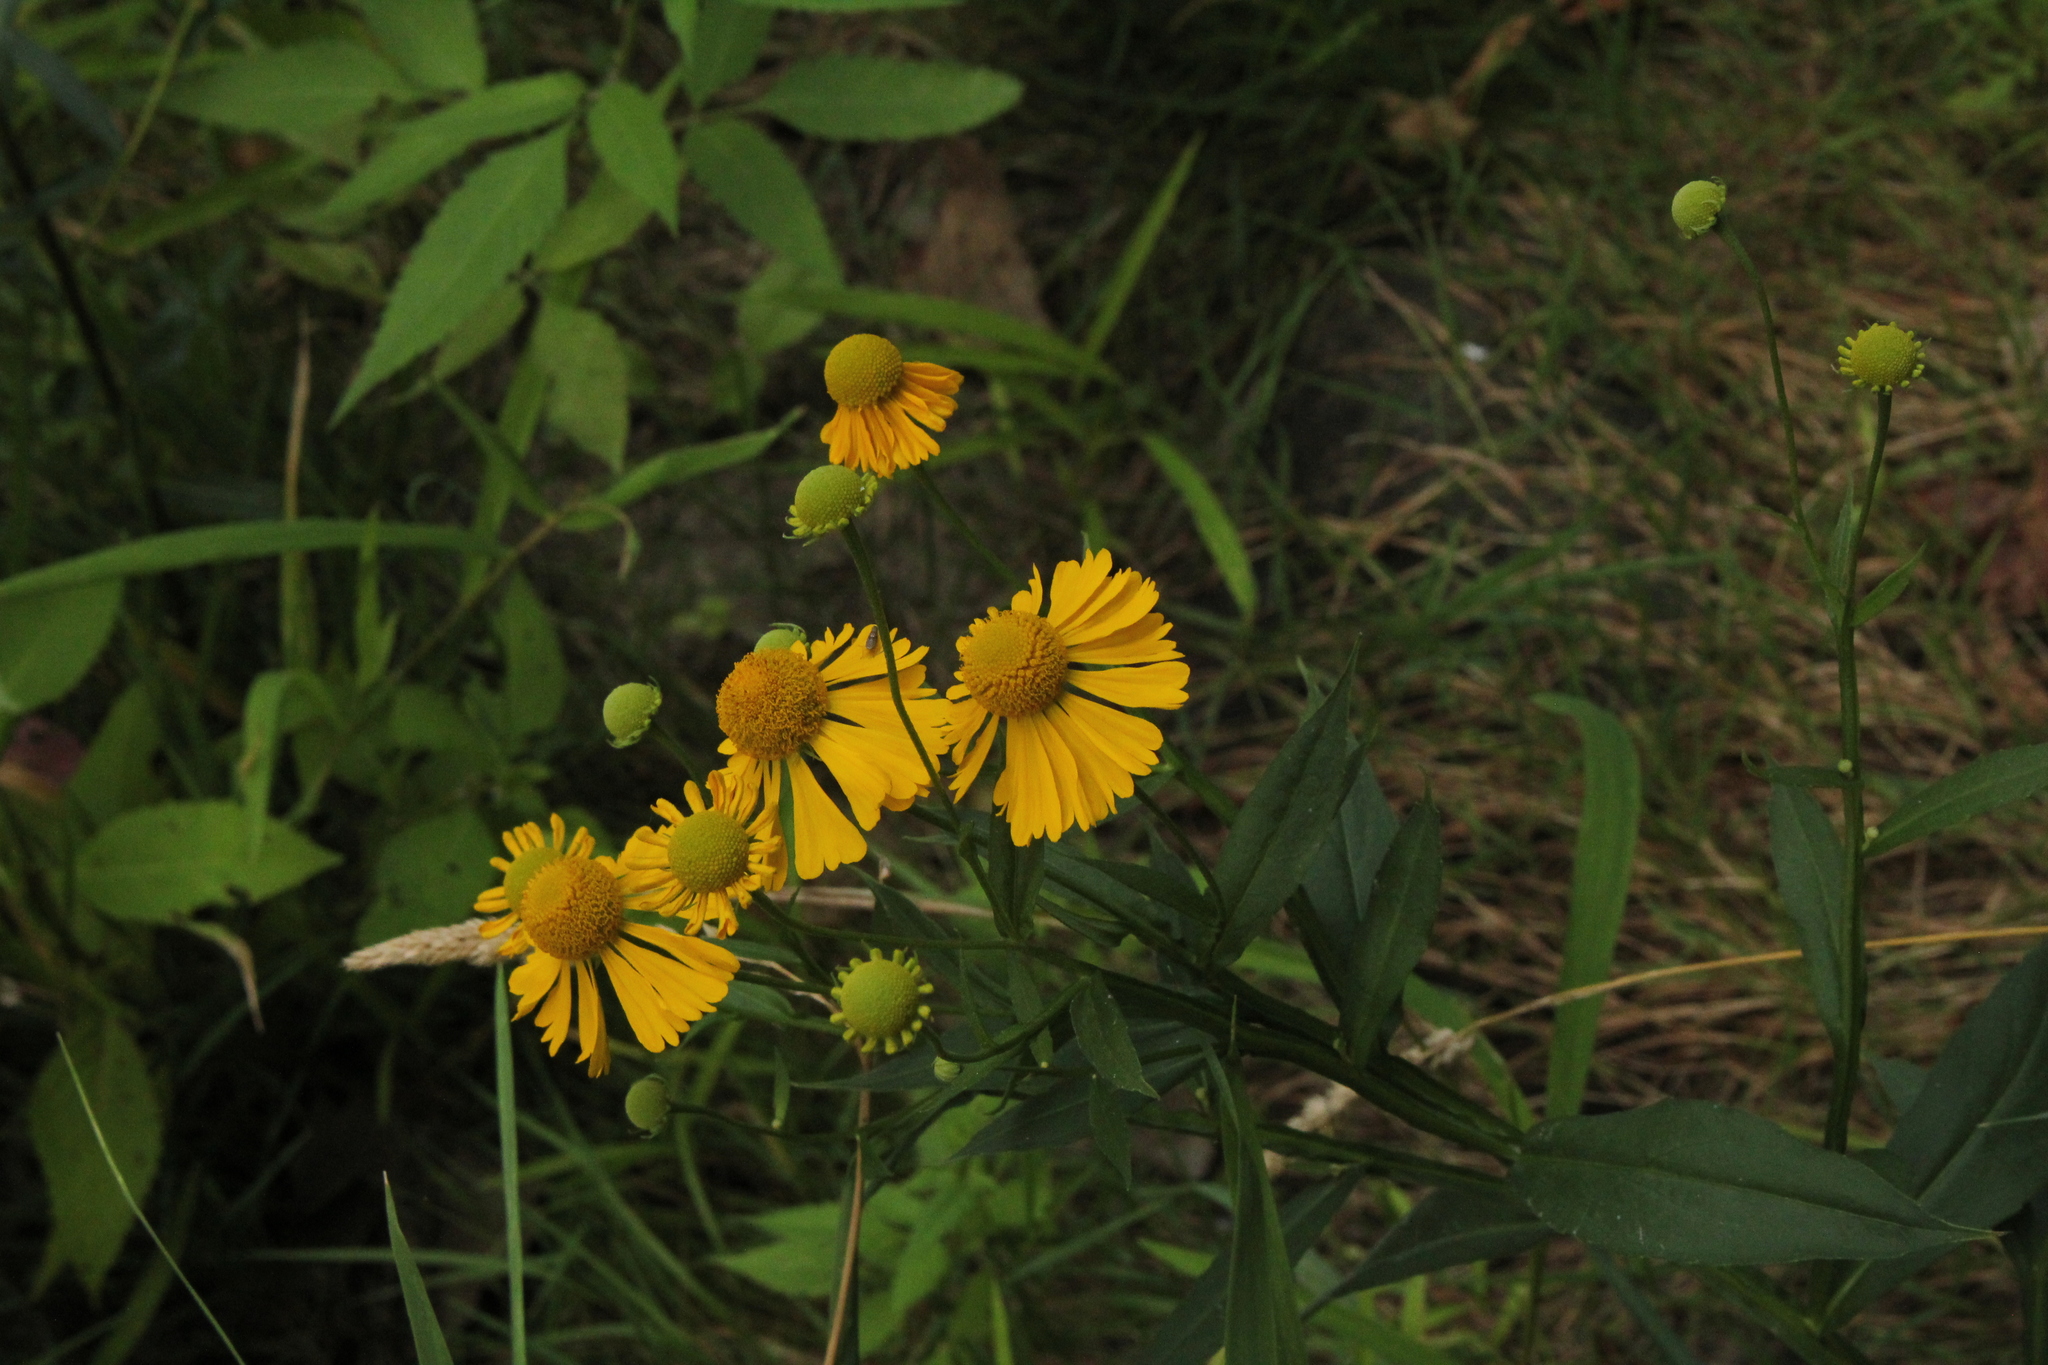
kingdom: Plantae
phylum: Tracheophyta
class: Magnoliopsida
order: Asterales
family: Asteraceae
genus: Helenium
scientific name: Helenium autumnale
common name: Sneezeweed
